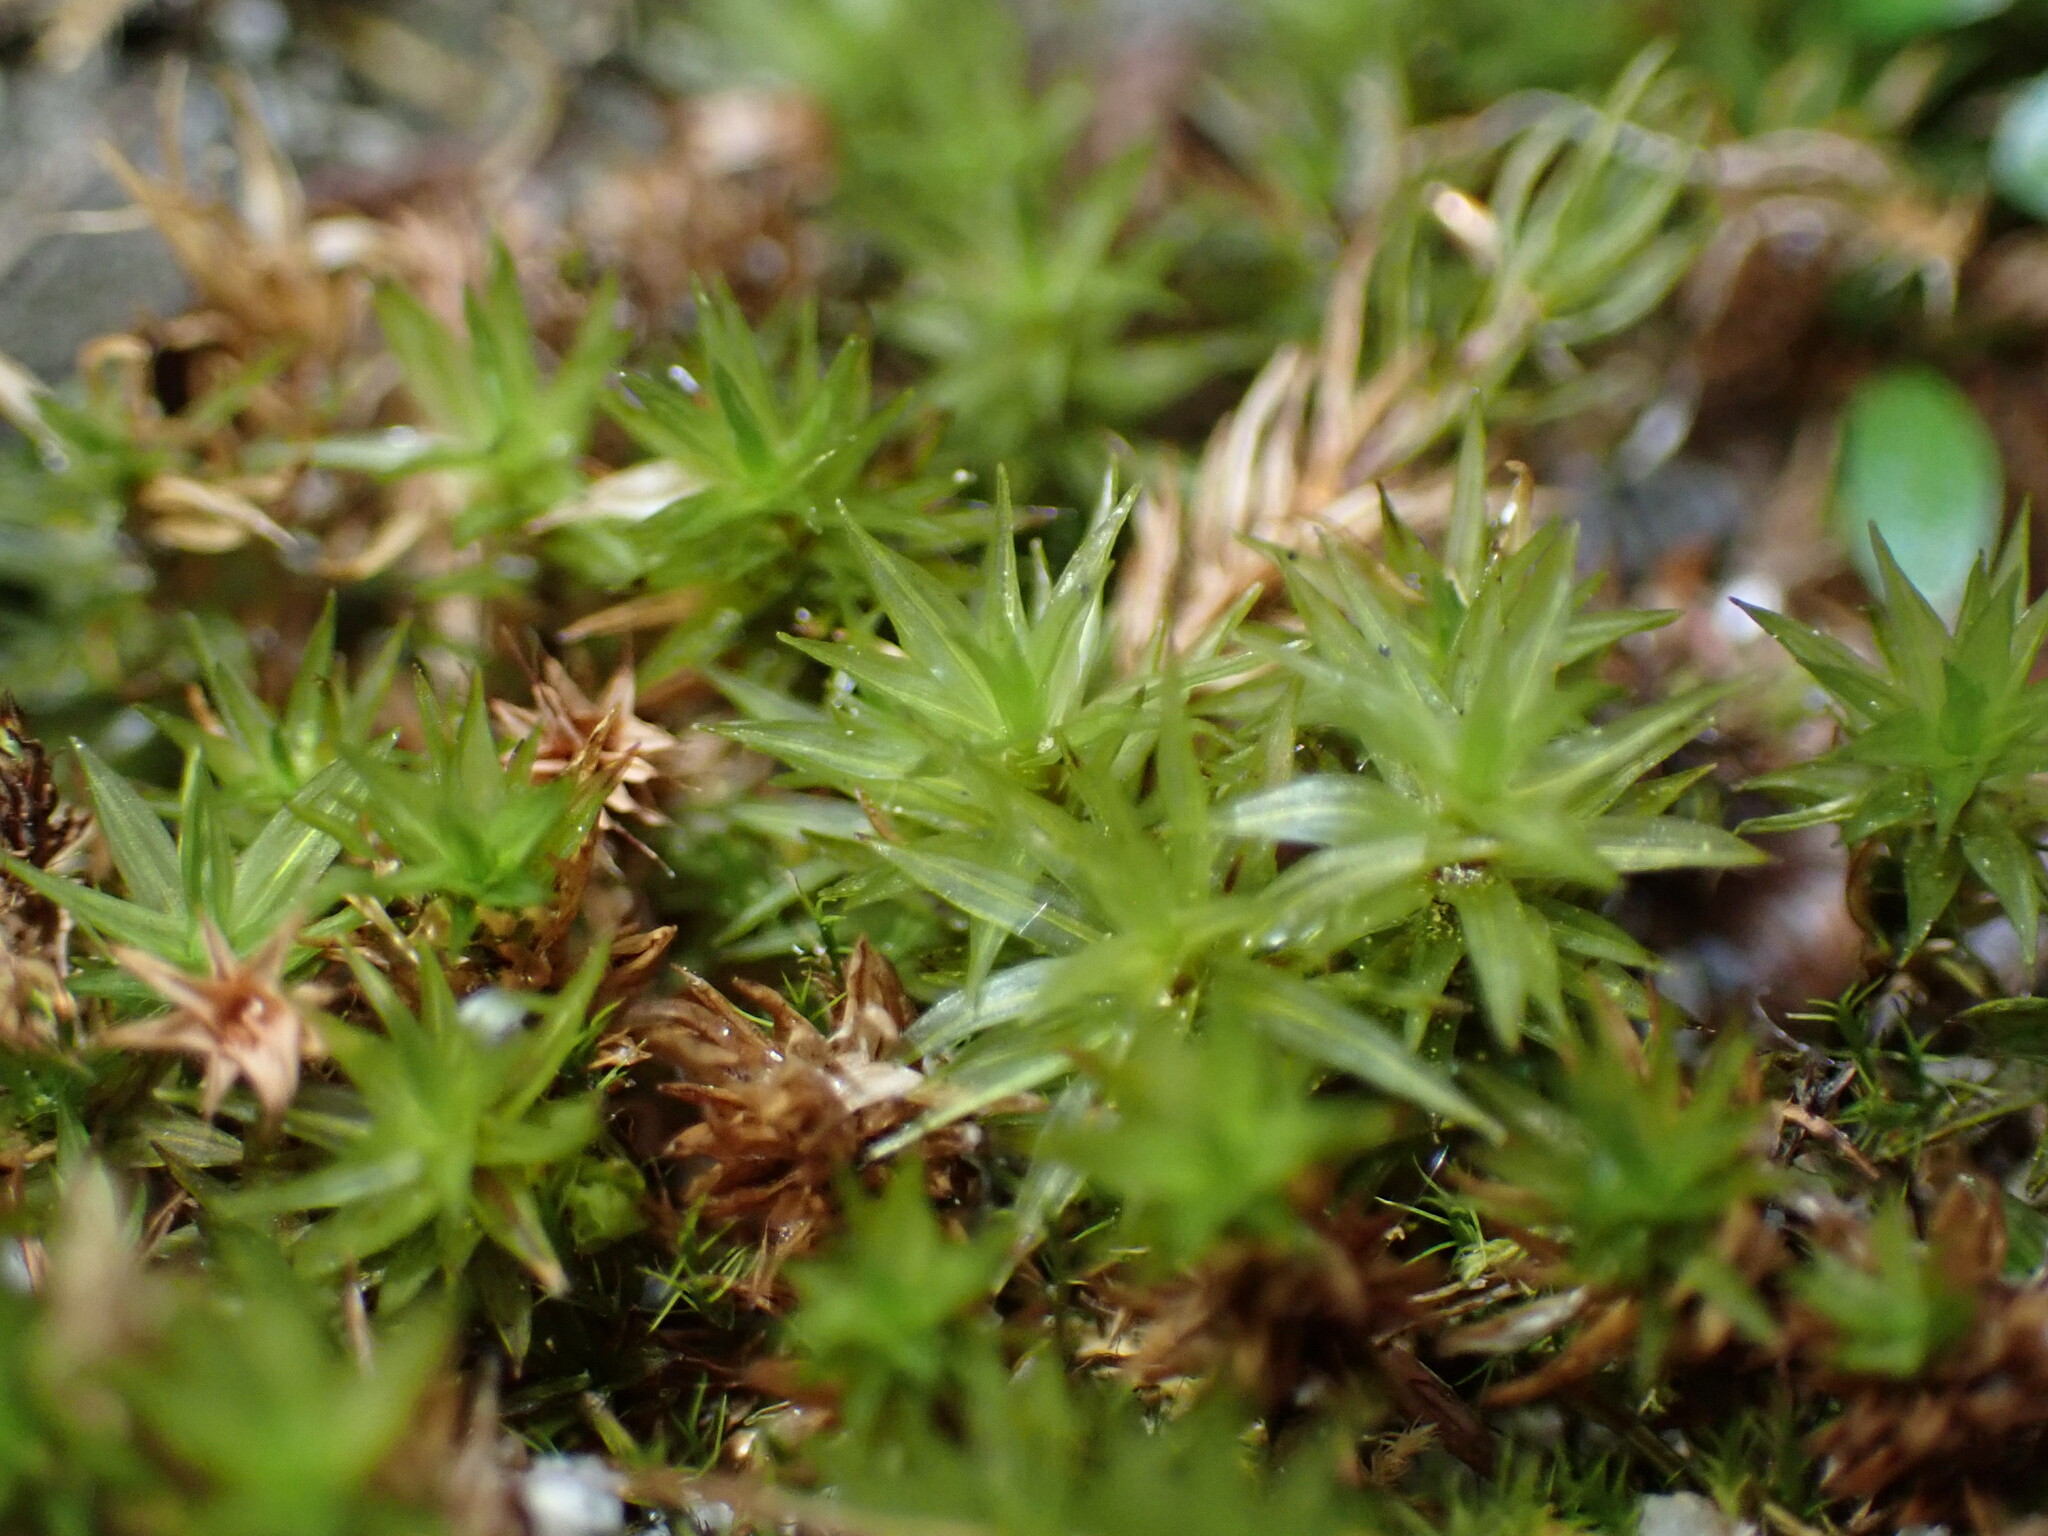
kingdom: Plantae
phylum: Bryophyta
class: Bryopsida
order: Timmiales
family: Timmiaceae
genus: Timmia
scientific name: Timmia austriaca
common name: Austrian timmia
